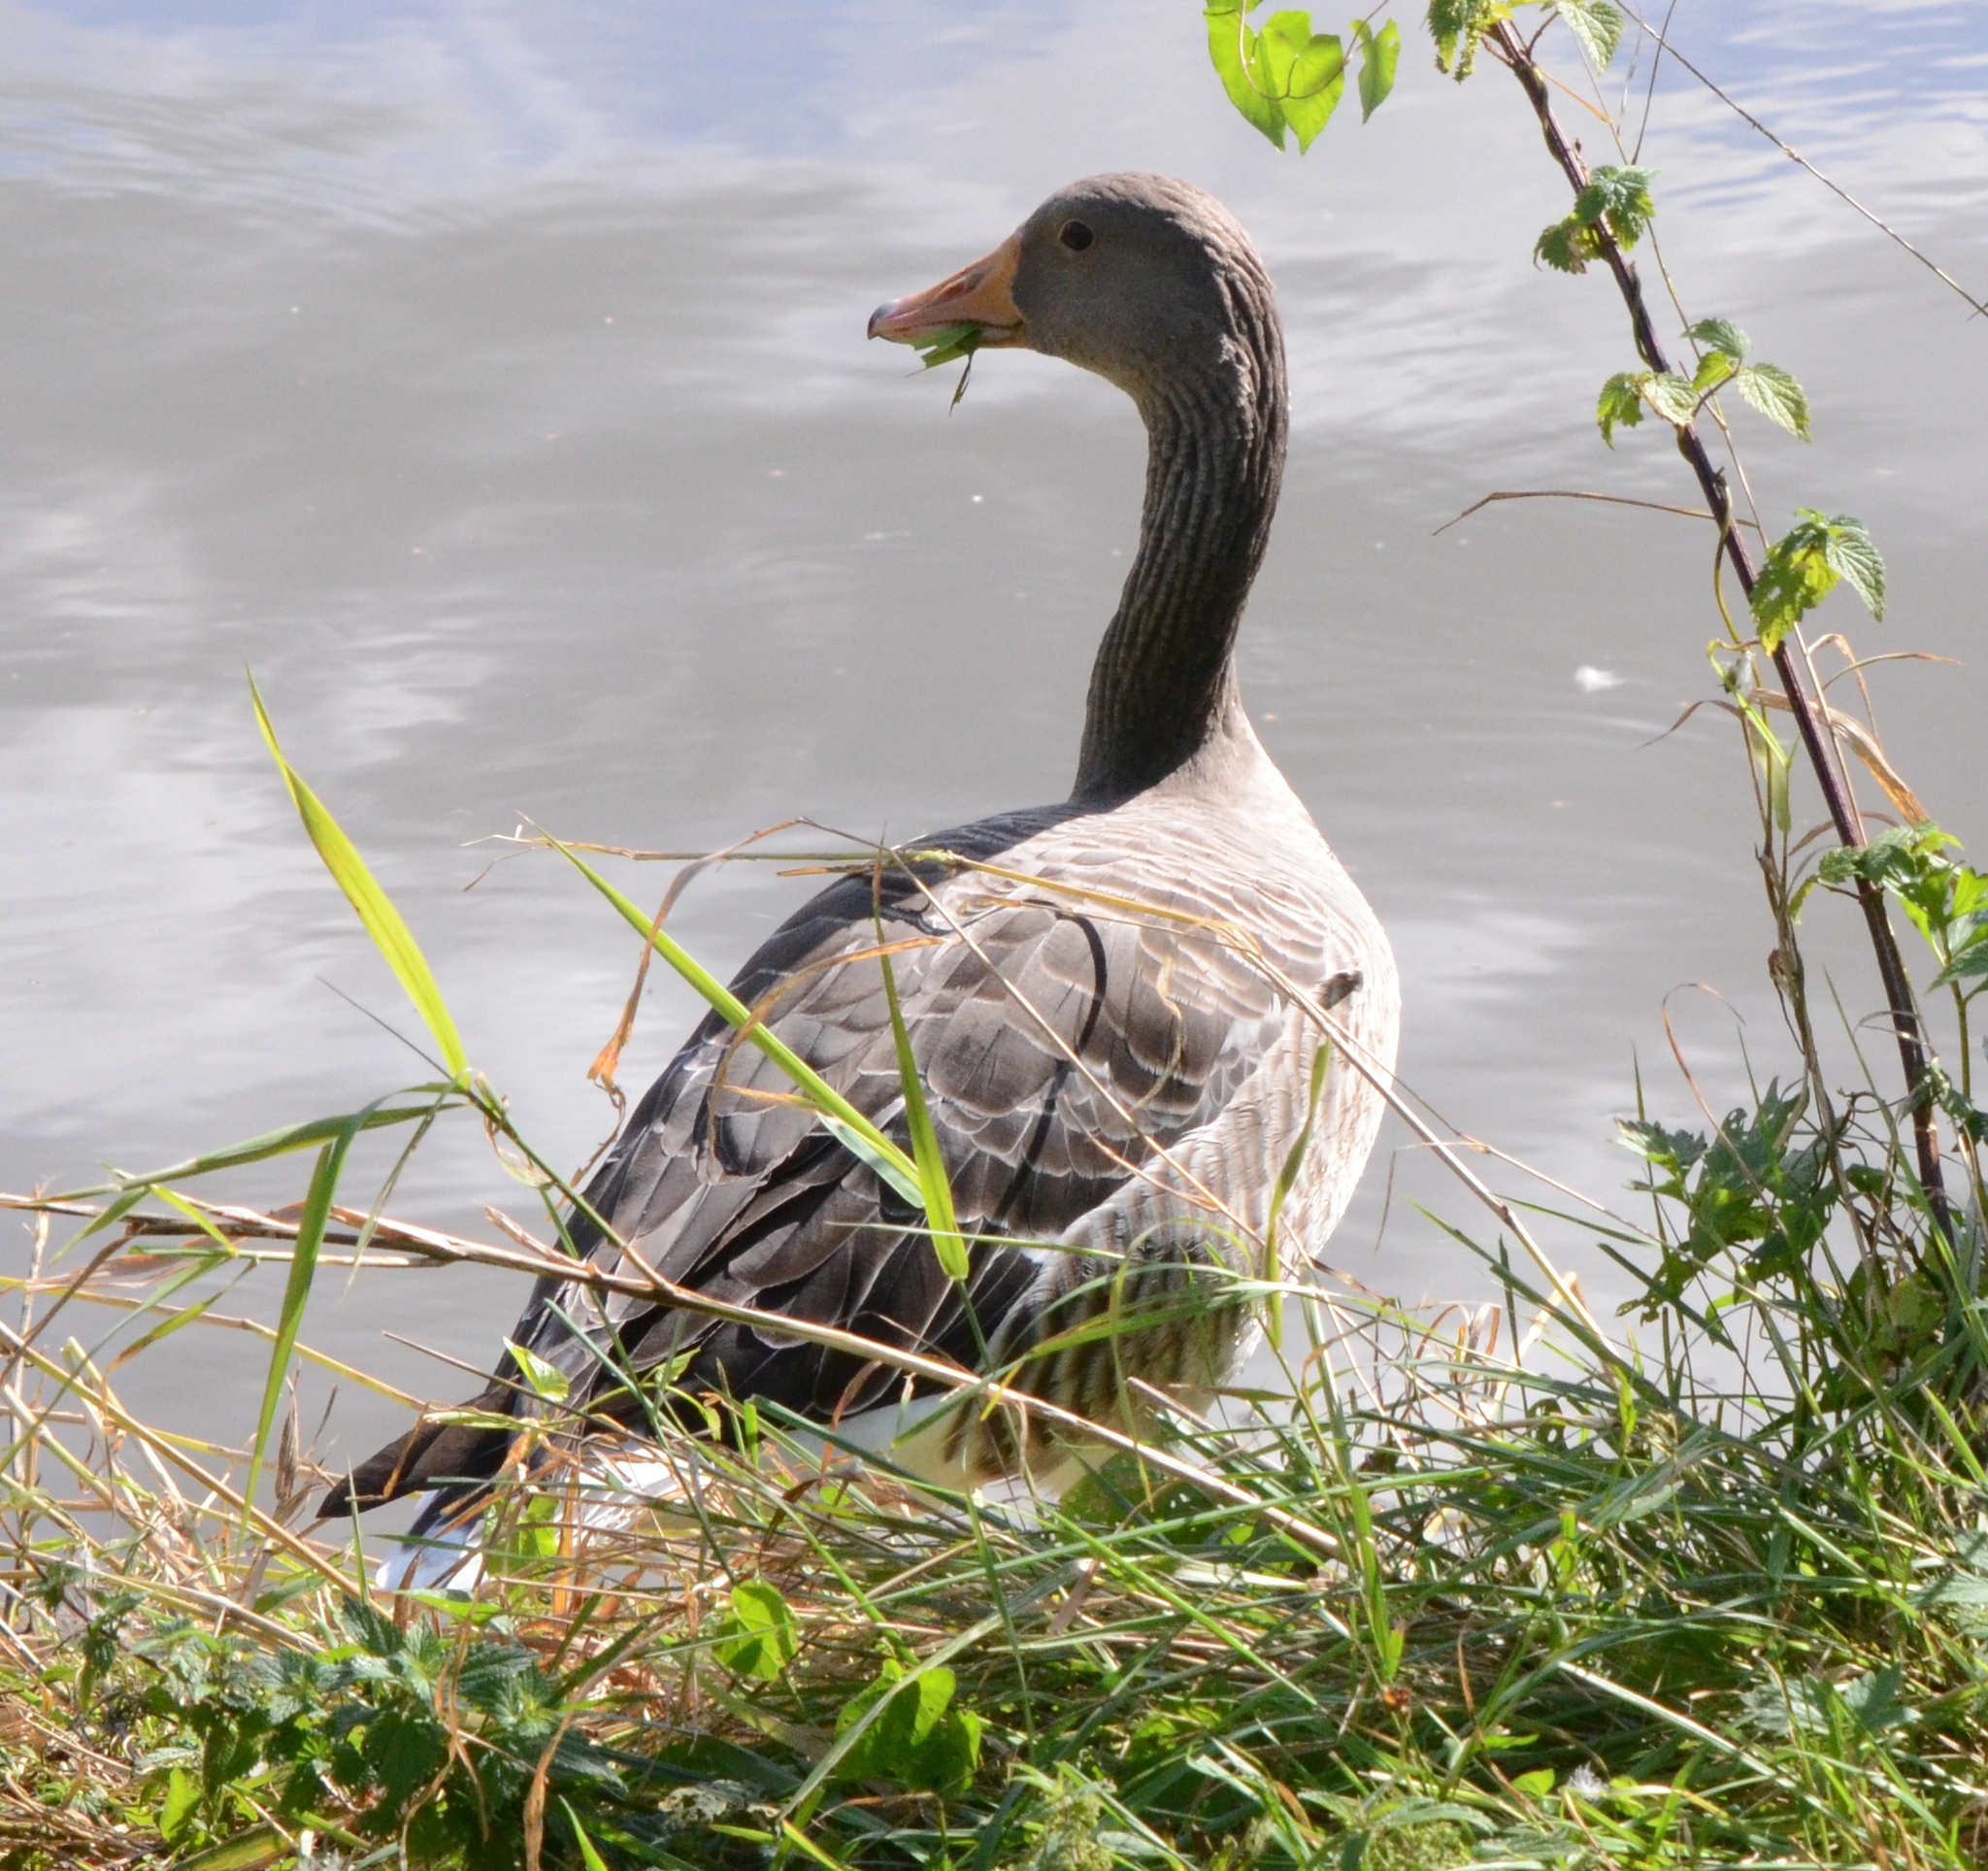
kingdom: Animalia
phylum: Chordata
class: Aves
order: Anseriformes
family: Anatidae
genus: Anser
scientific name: Anser anser
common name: Greylag goose
